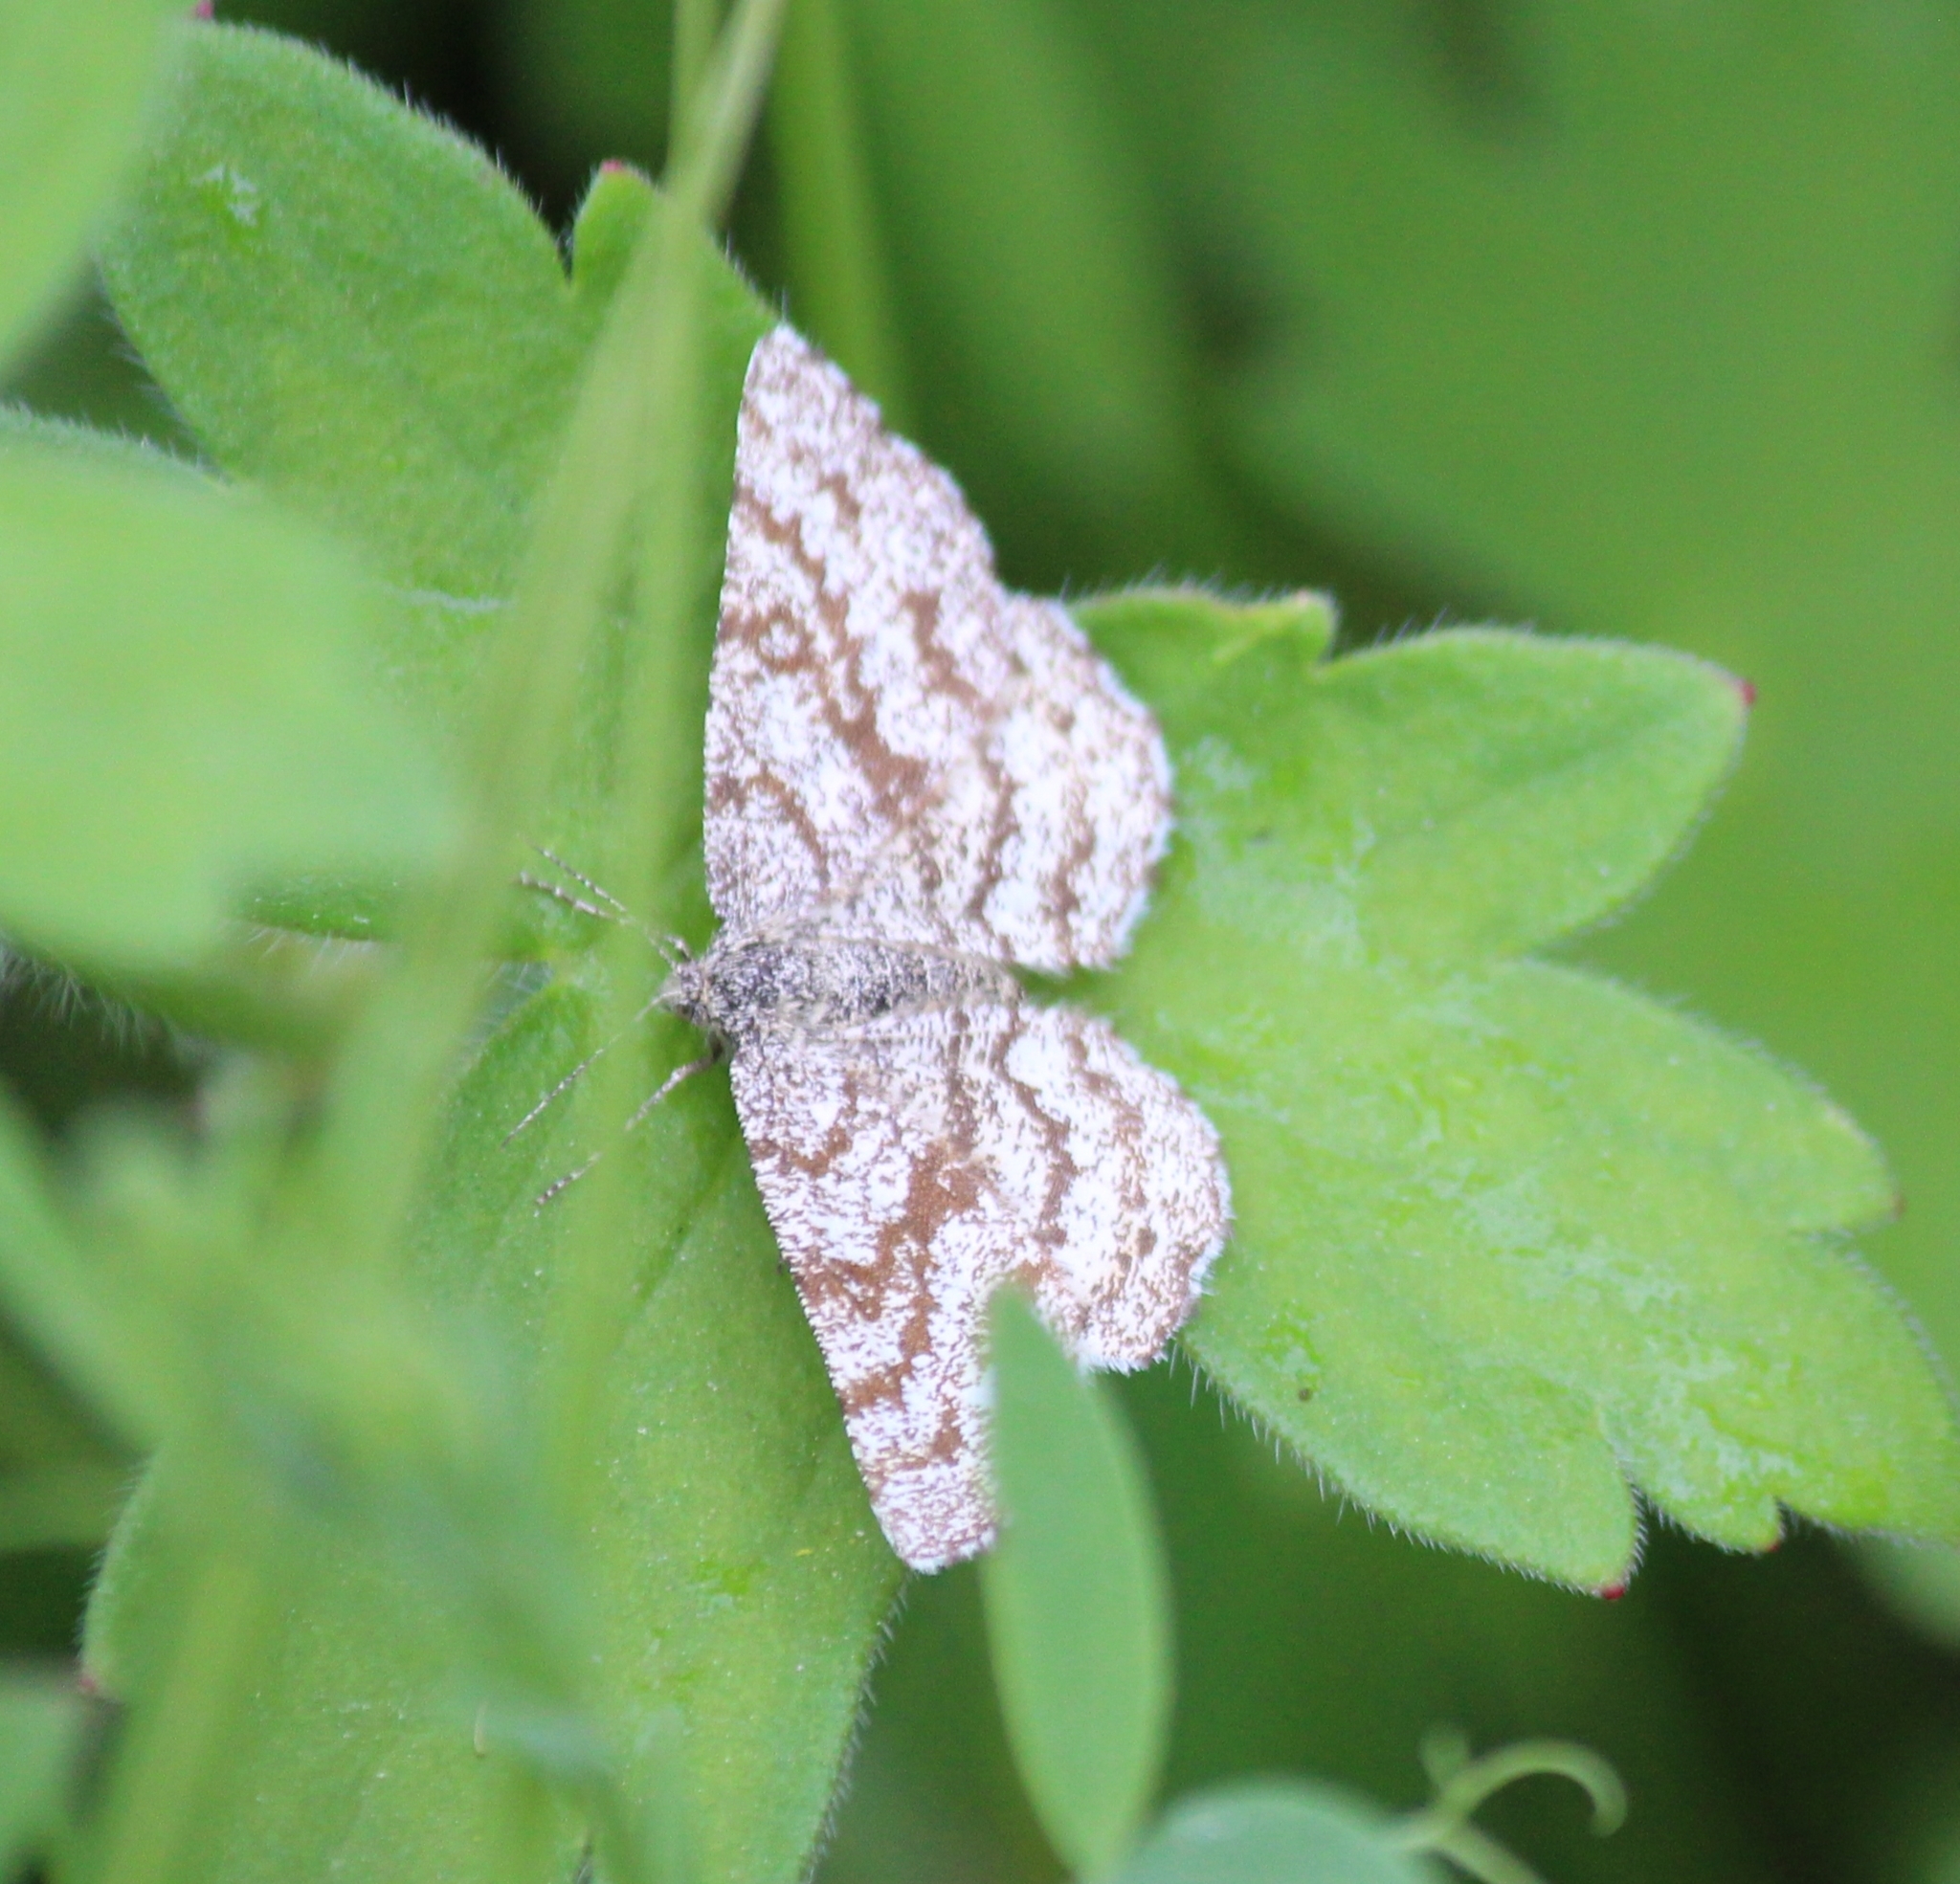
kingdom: Animalia
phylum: Arthropoda
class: Insecta
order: Lepidoptera
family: Geometridae
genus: Ematurga
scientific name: Ematurga atomaria
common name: Common heath
